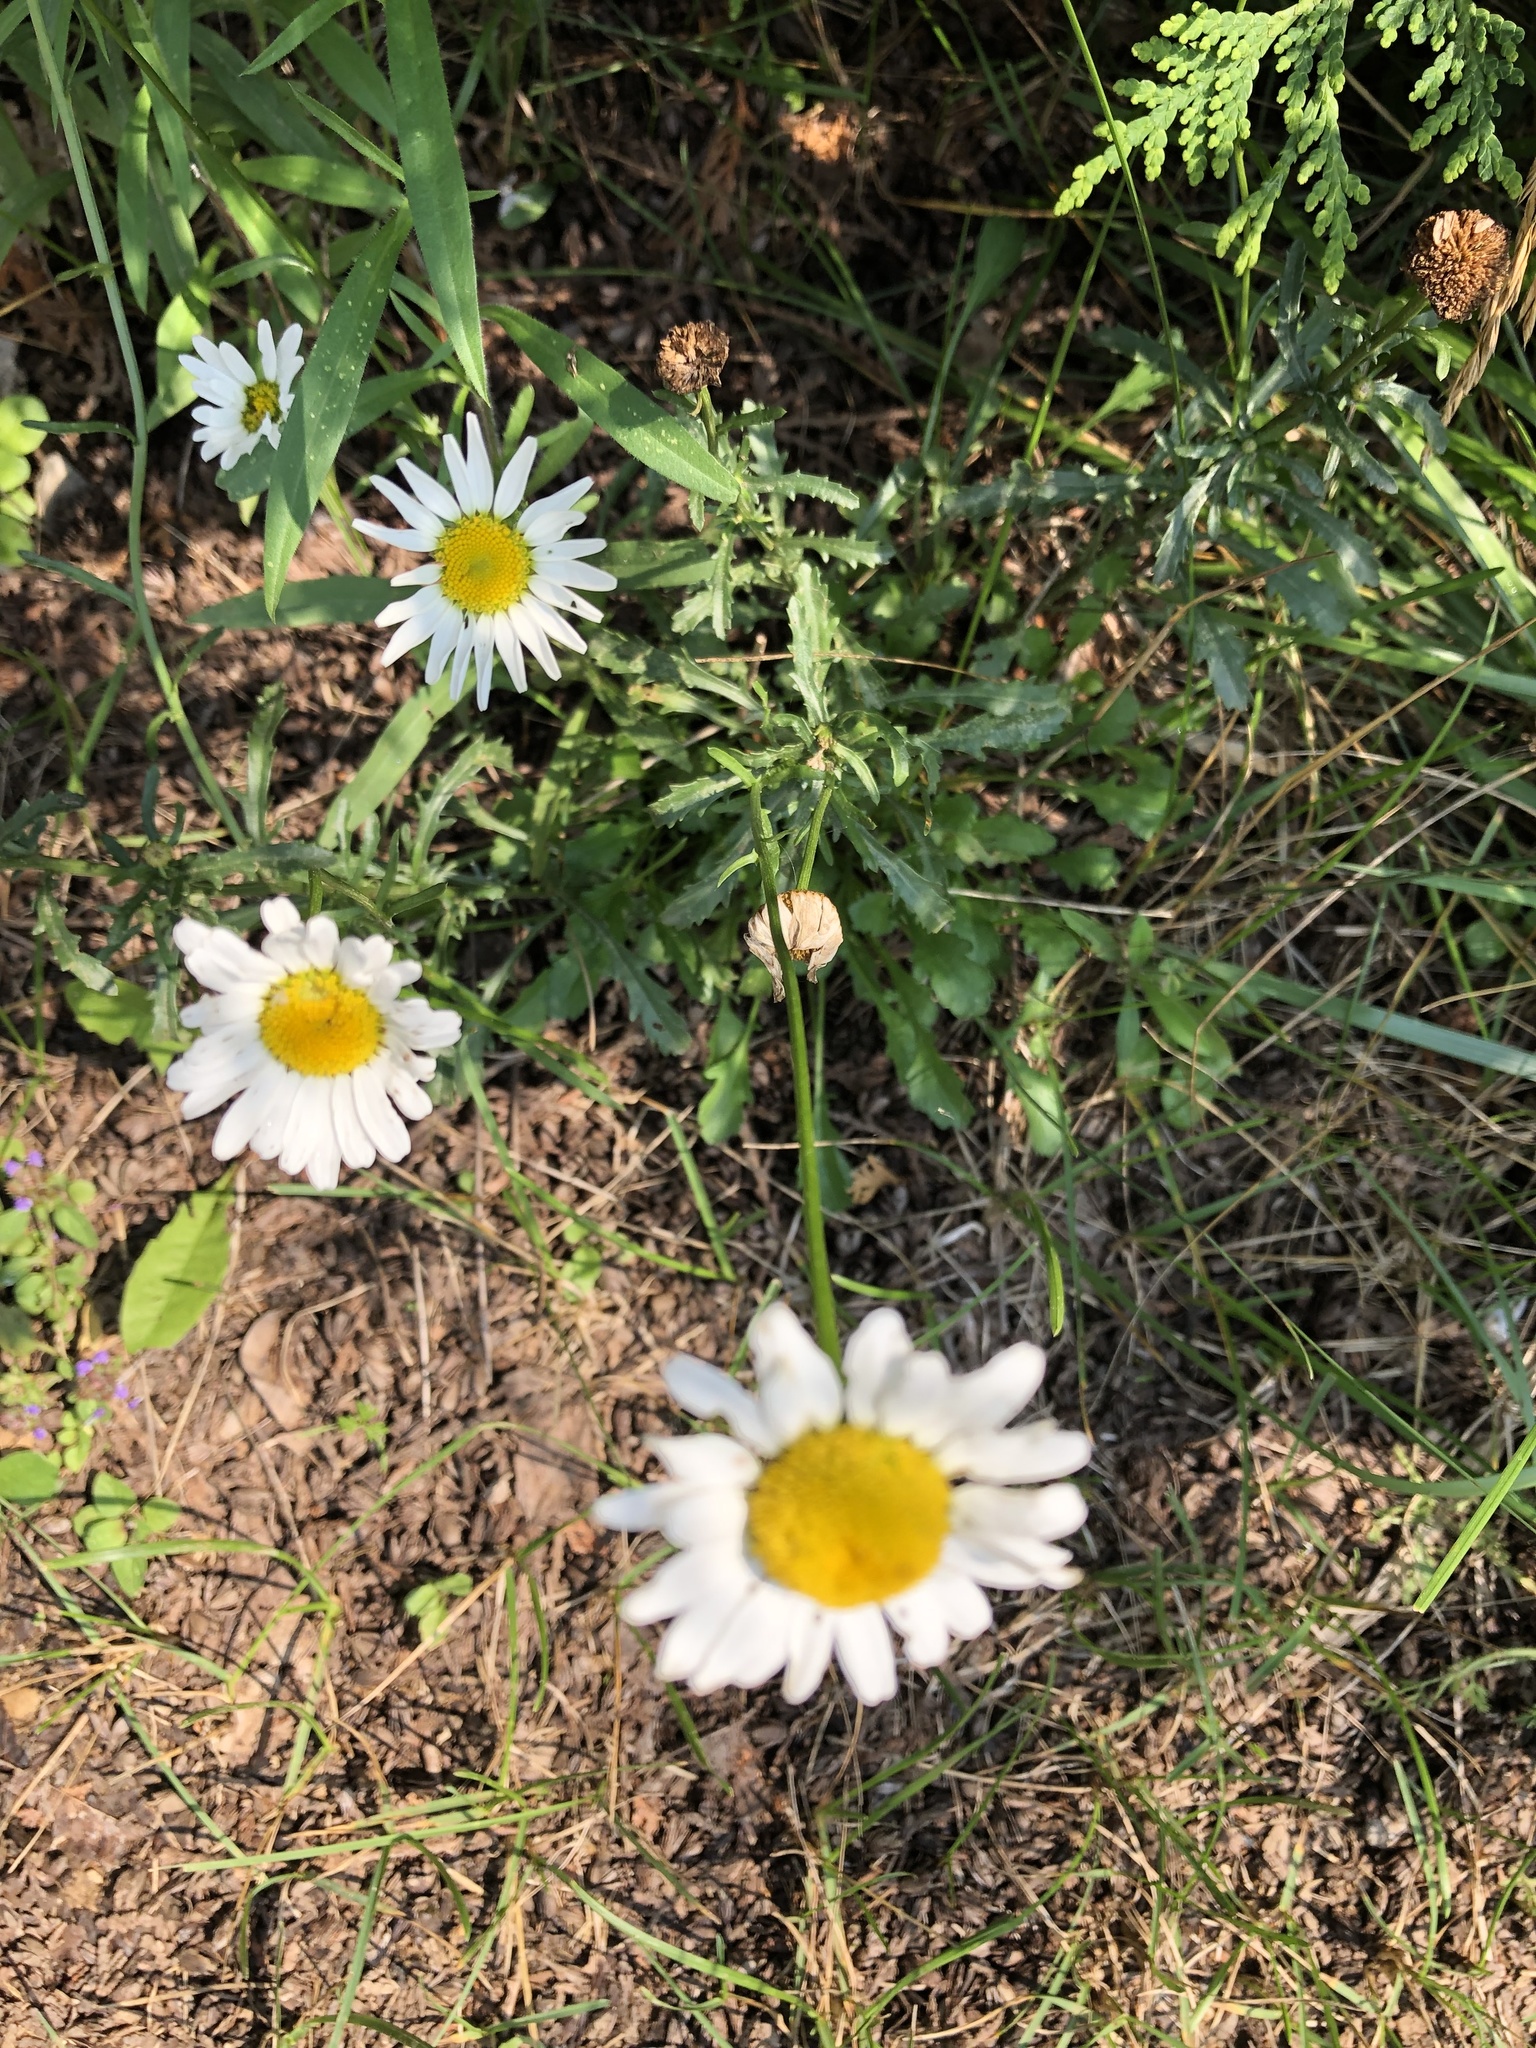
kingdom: Plantae
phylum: Tracheophyta
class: Magnoliopsida
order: Asterales
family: Asteraceae
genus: Leucanthemum
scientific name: Leucanthemum vulgare
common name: Oxeye daisy
